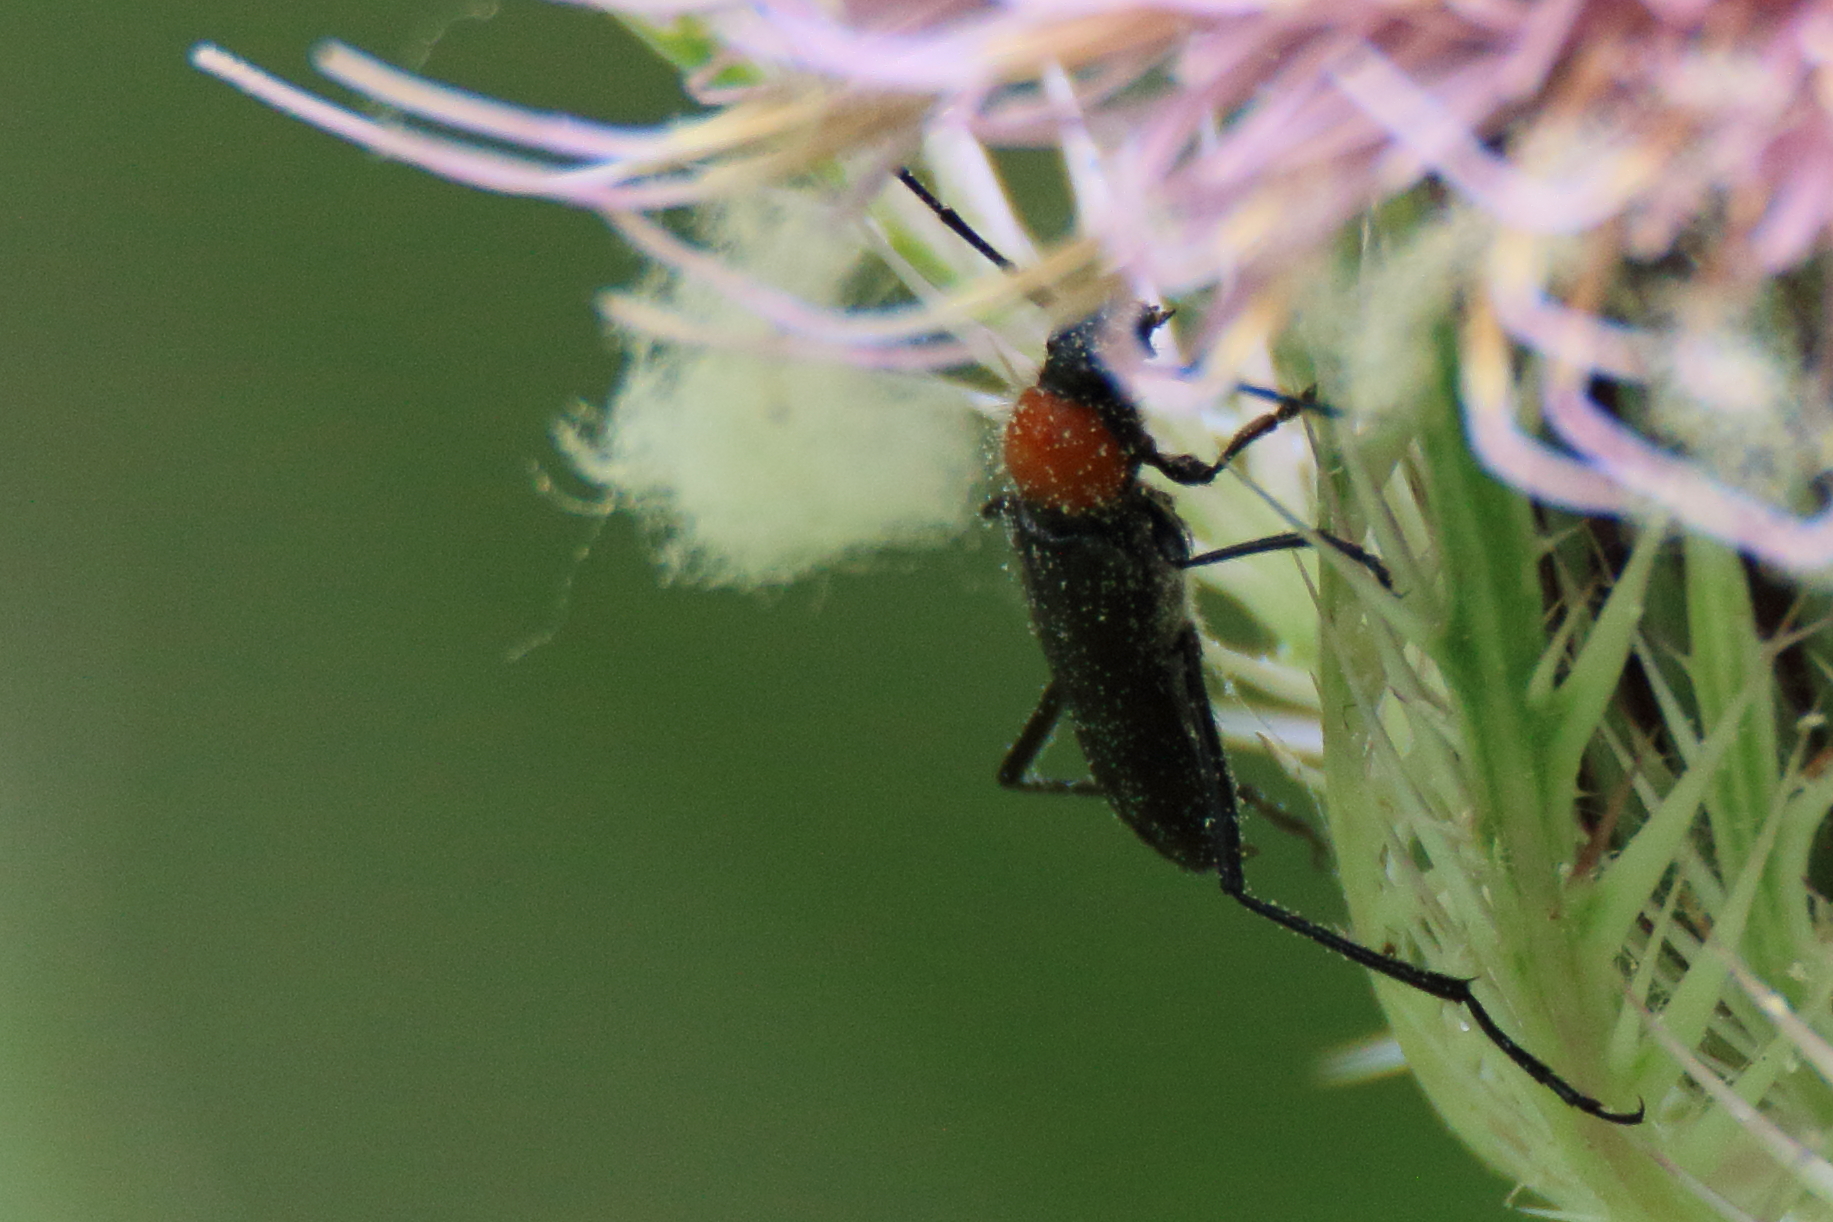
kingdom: Animalia
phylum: Arthropoda
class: Insecta
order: Coleoptera
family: Cerambycidae
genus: Batyle
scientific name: Batyle ignicollis
